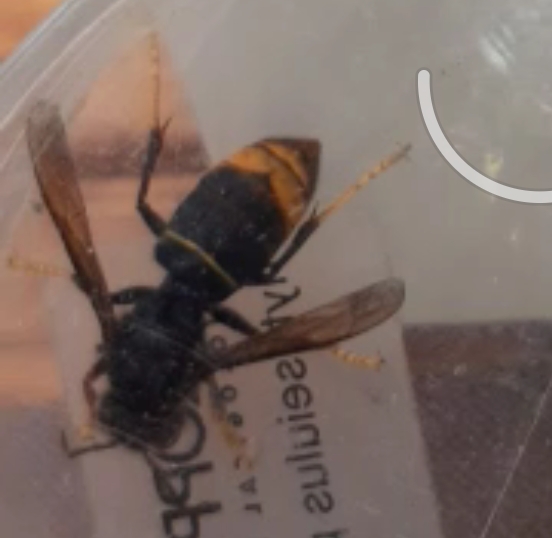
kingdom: Animalia
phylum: Arthropoda
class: Insecta
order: Hymenoptera
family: Vespidae
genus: Vespa
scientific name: Vespa velutina
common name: Asian hornet
